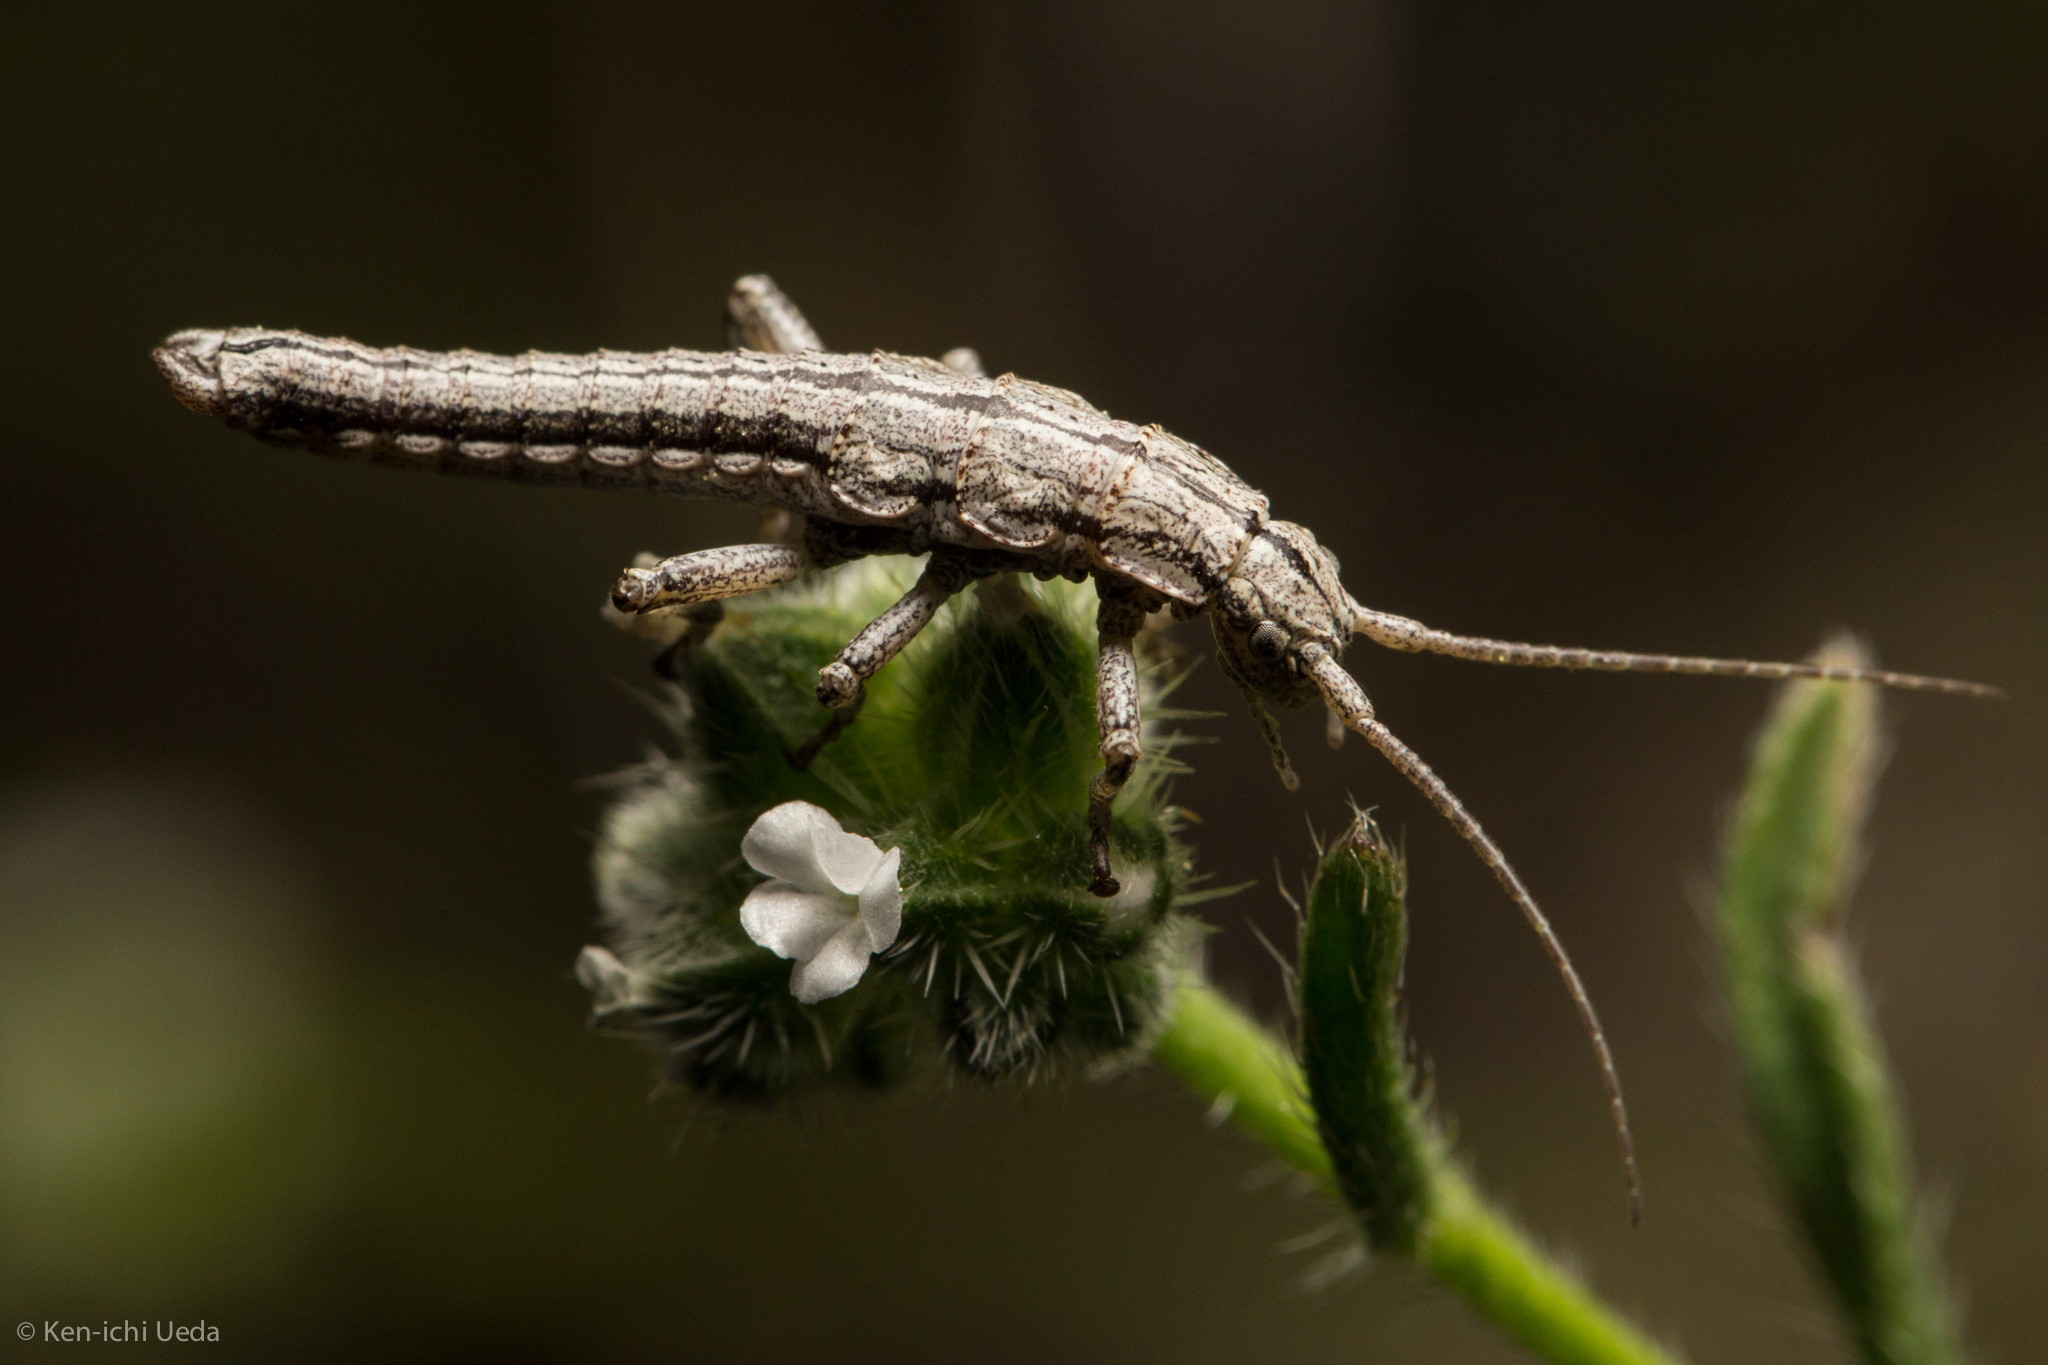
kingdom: Animalia
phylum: Arthropoda
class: Insecta
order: Phasmida
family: Timematidae
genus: Timema
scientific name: Timema boharti
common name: Bohart's timema
